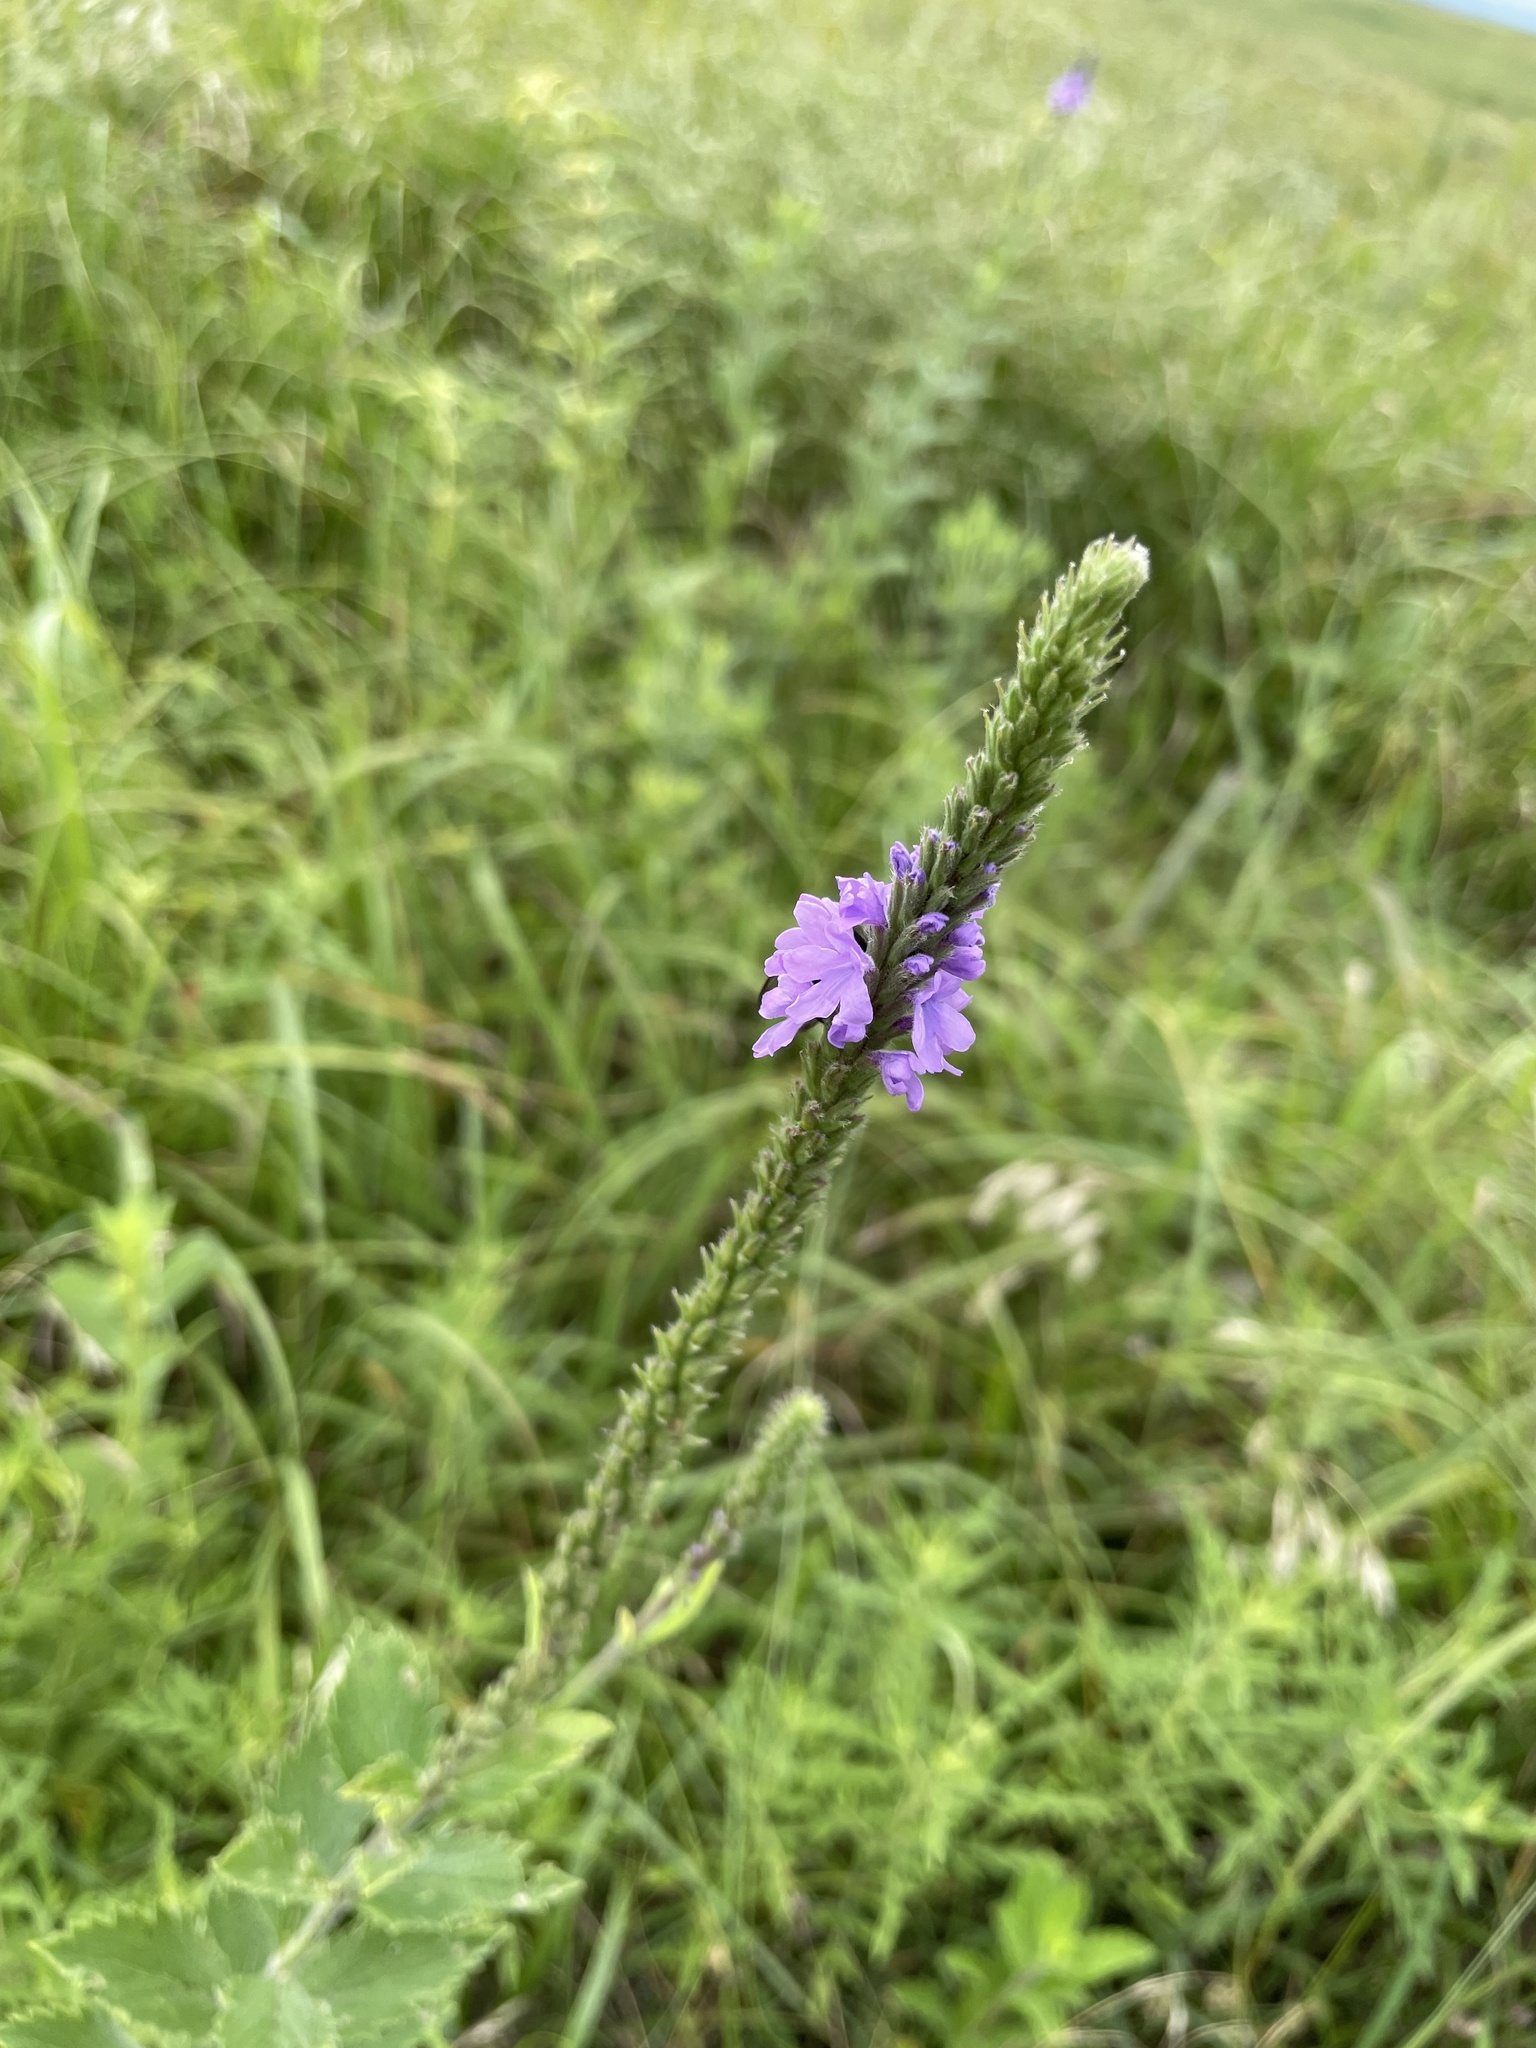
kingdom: Plantae
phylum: Tracheophyta
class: Magnoliopsida
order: Lamiales
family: Verbenaceae
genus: Verbena
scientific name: Verbena stricta
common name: Hoary vervain
